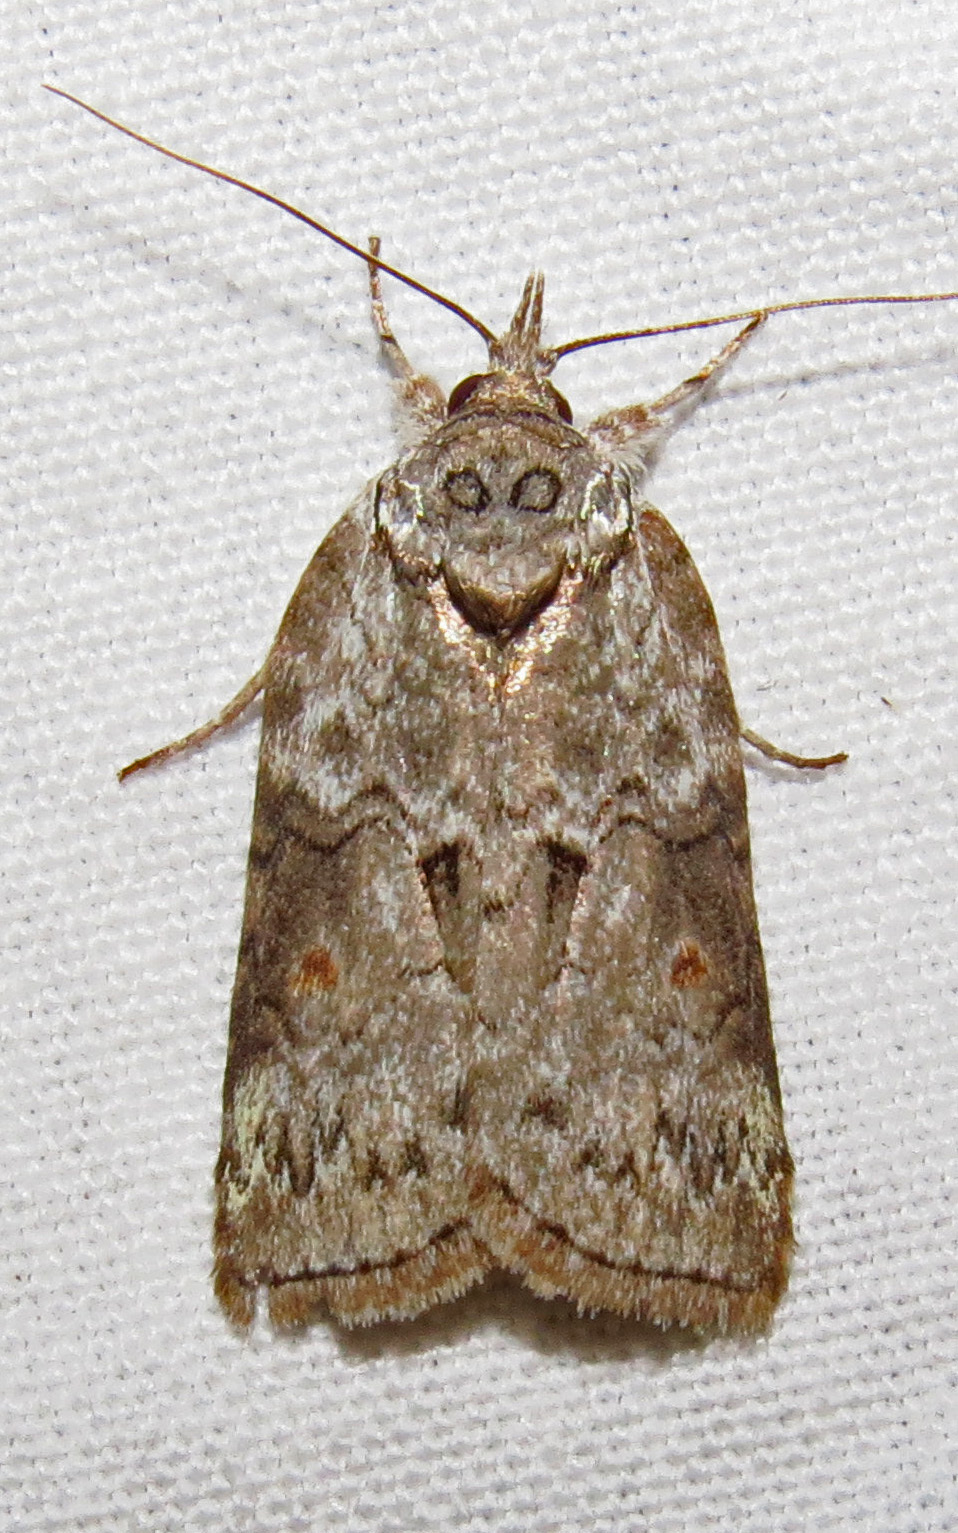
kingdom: Animalia
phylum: Arthropoda
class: Insecta
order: Lepidoptera
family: Nolidae
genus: Nycteola
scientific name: Nycteola metaspilella
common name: Forgotten frigid owlet
